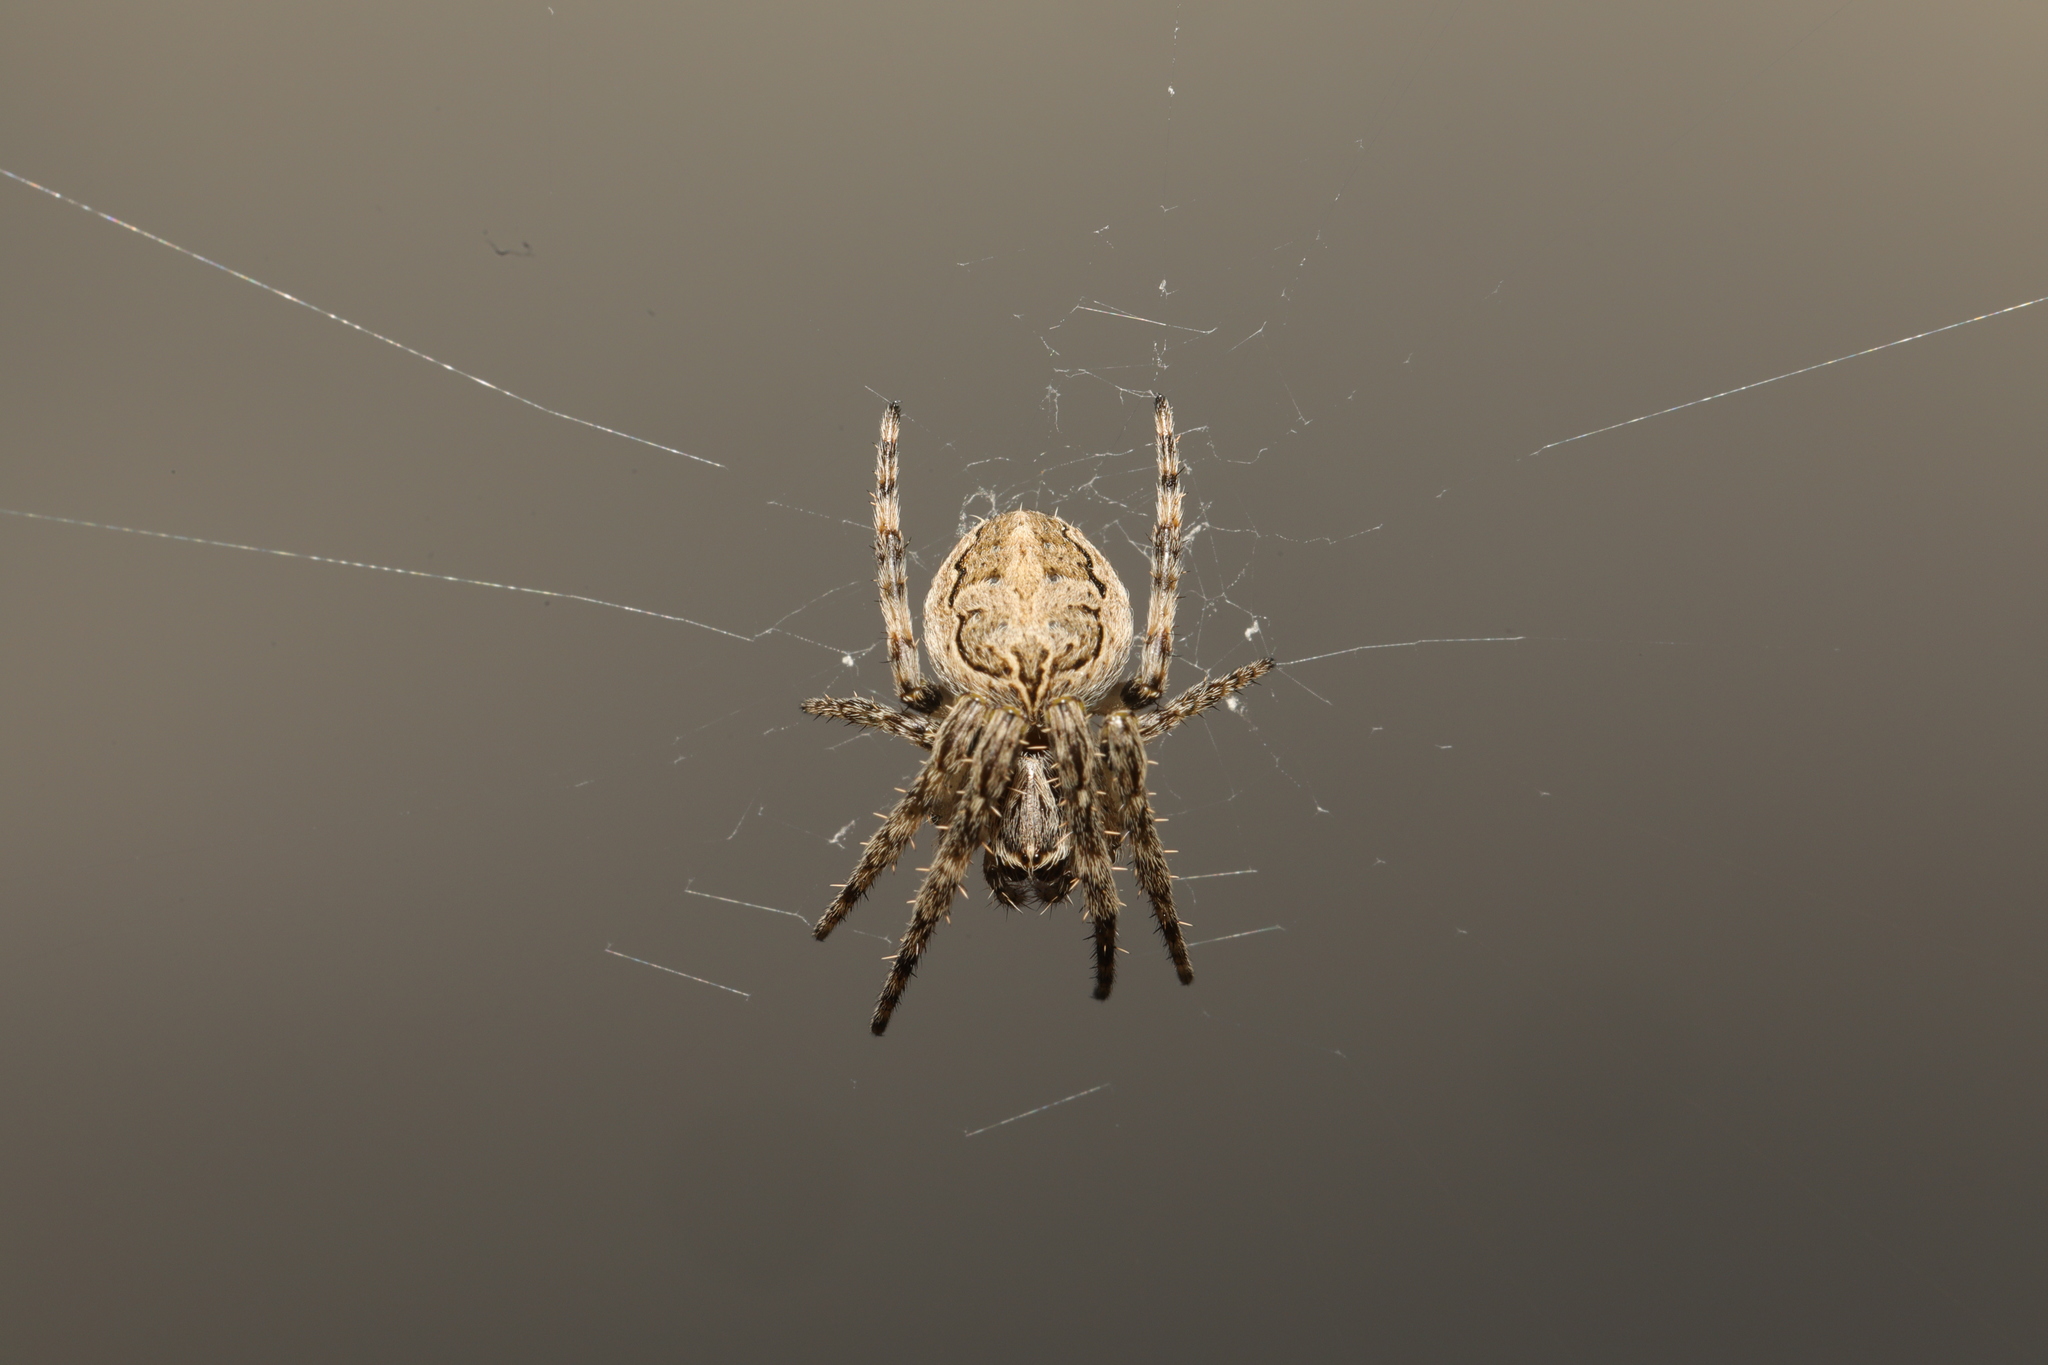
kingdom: Animalia
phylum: Arthropoda
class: Arachnida
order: Araneae
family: Araneidae
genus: Larinioides
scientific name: Larinioides sclopetarius
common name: Bridge orbweaver
